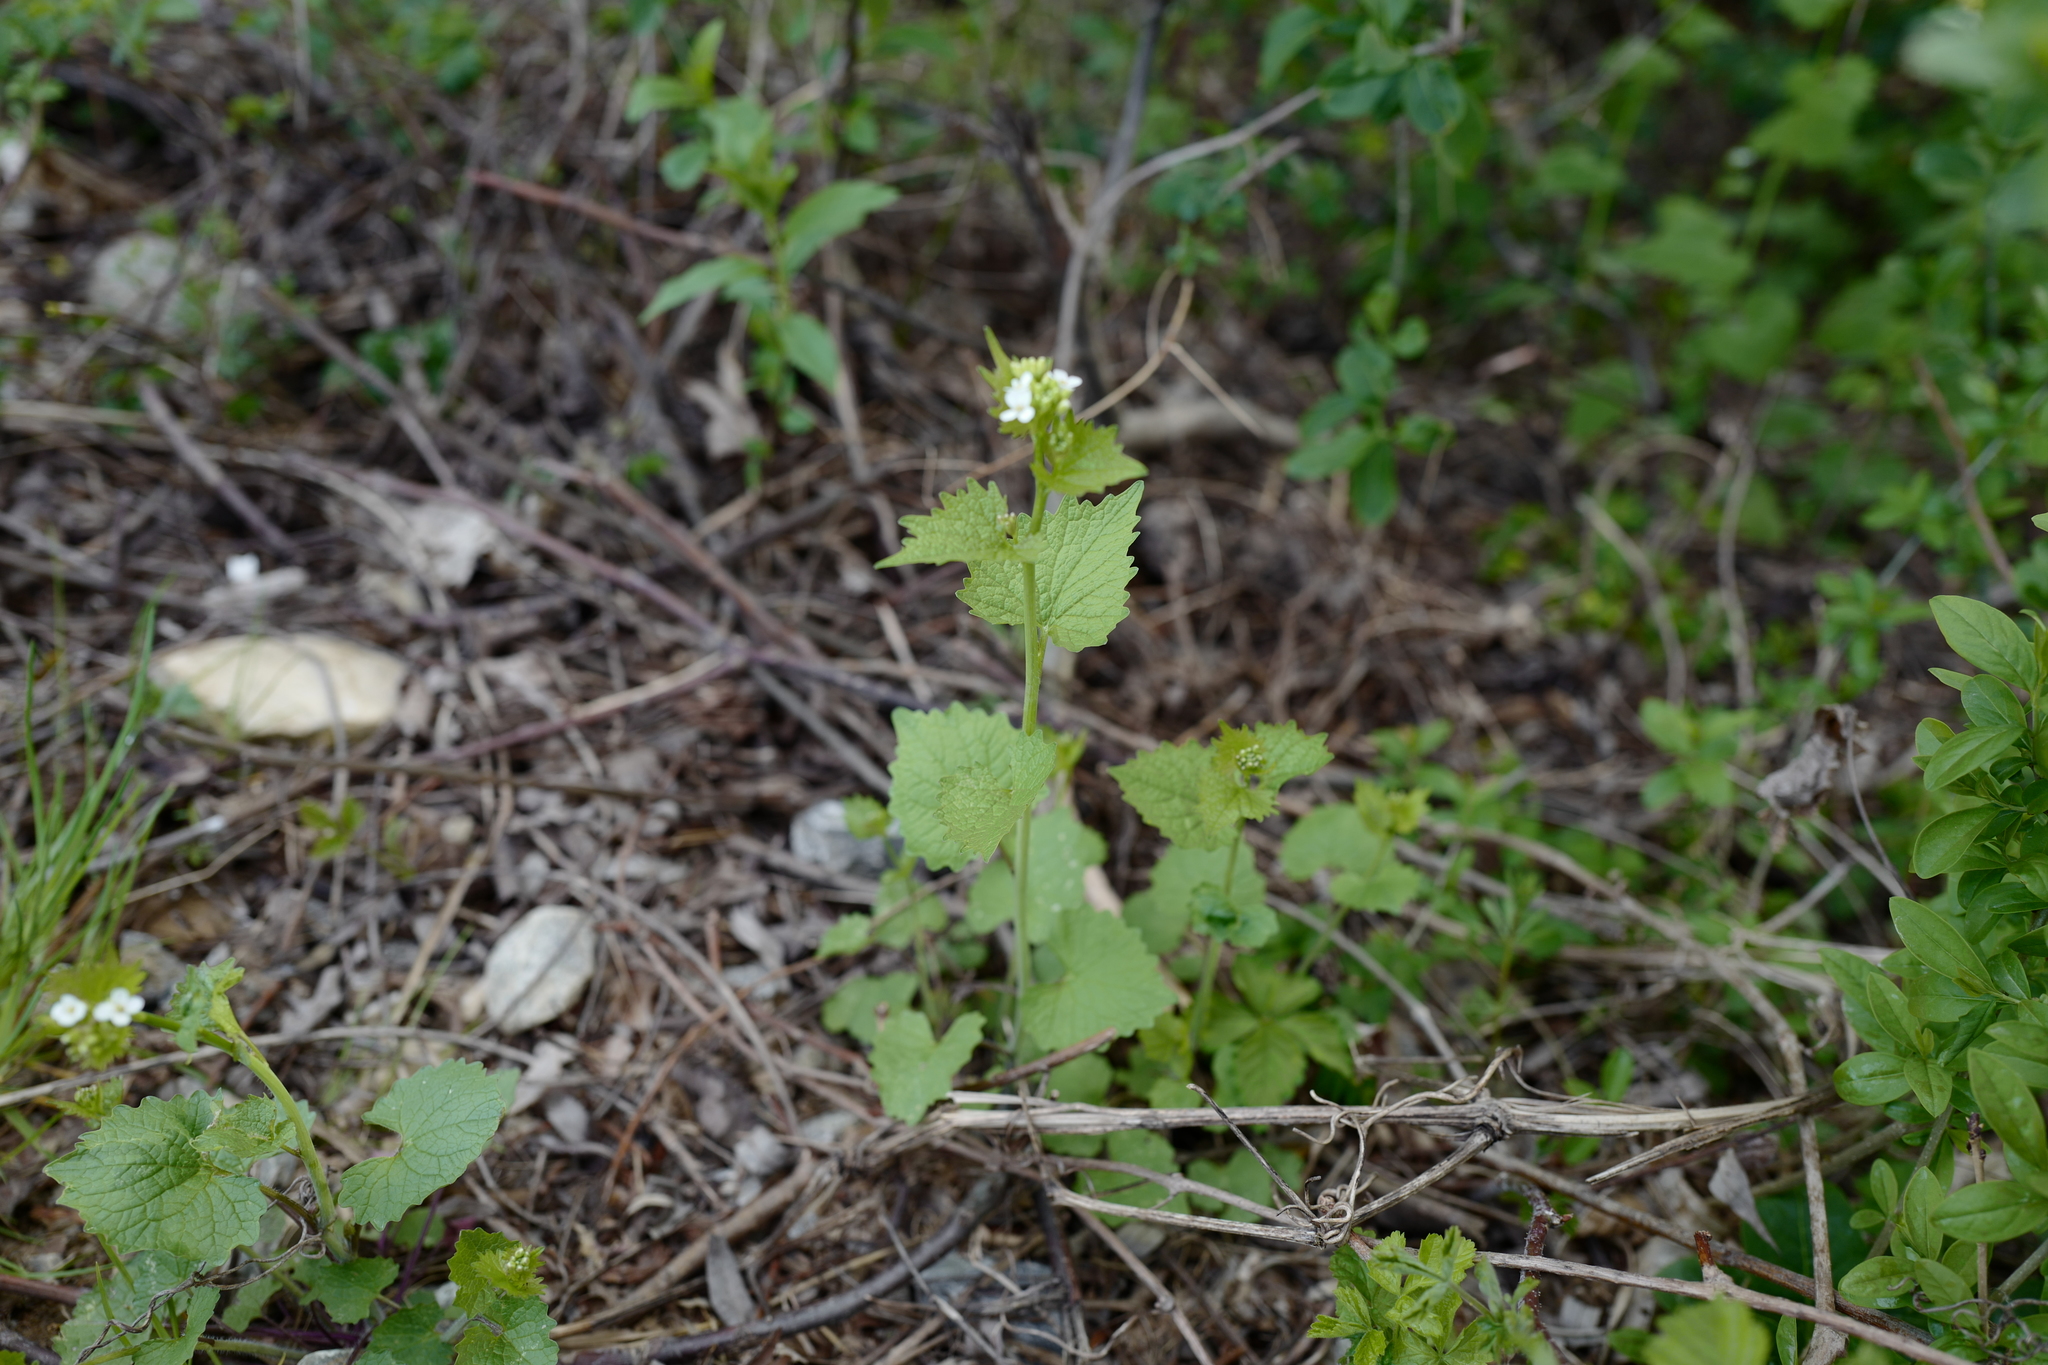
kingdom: Plantae
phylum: Tracheophyta
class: Magnoliopsida
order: Brassicales
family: Brassicaceae
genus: Alliaria
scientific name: Alliaria petiolata
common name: Garlic mustard
